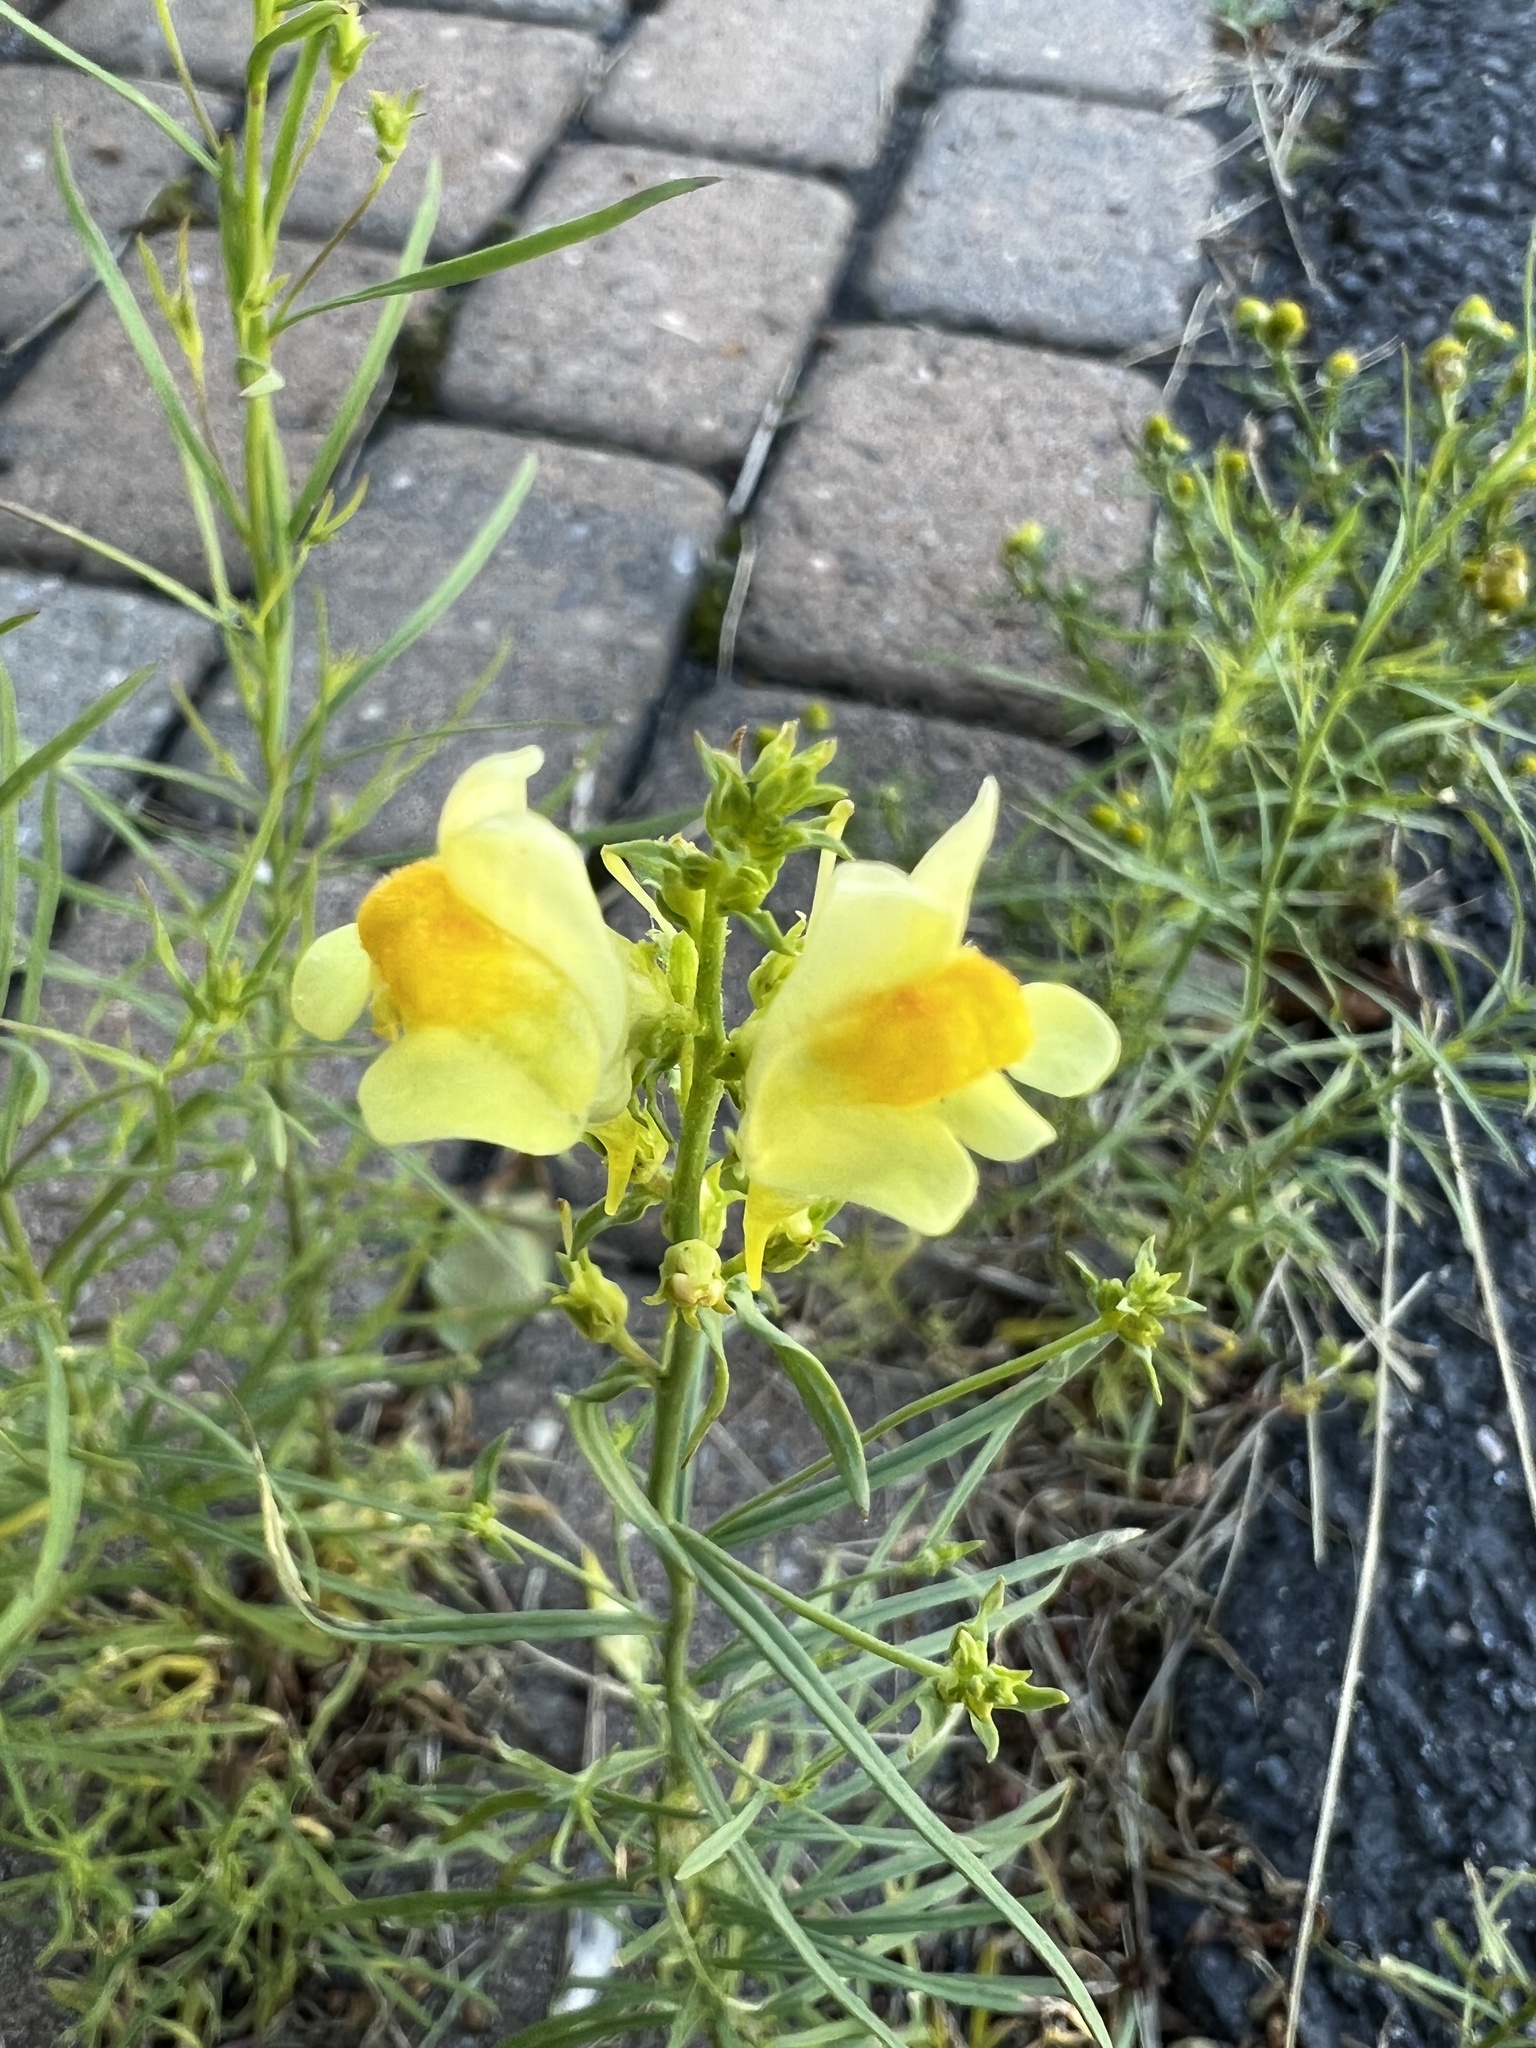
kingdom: Plantae
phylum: Tracheophyta
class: Magnoliopsida
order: Lamiales
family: Plantaginaceae
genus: Linaria
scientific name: Linaria vulgaris
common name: Butter and eggs
